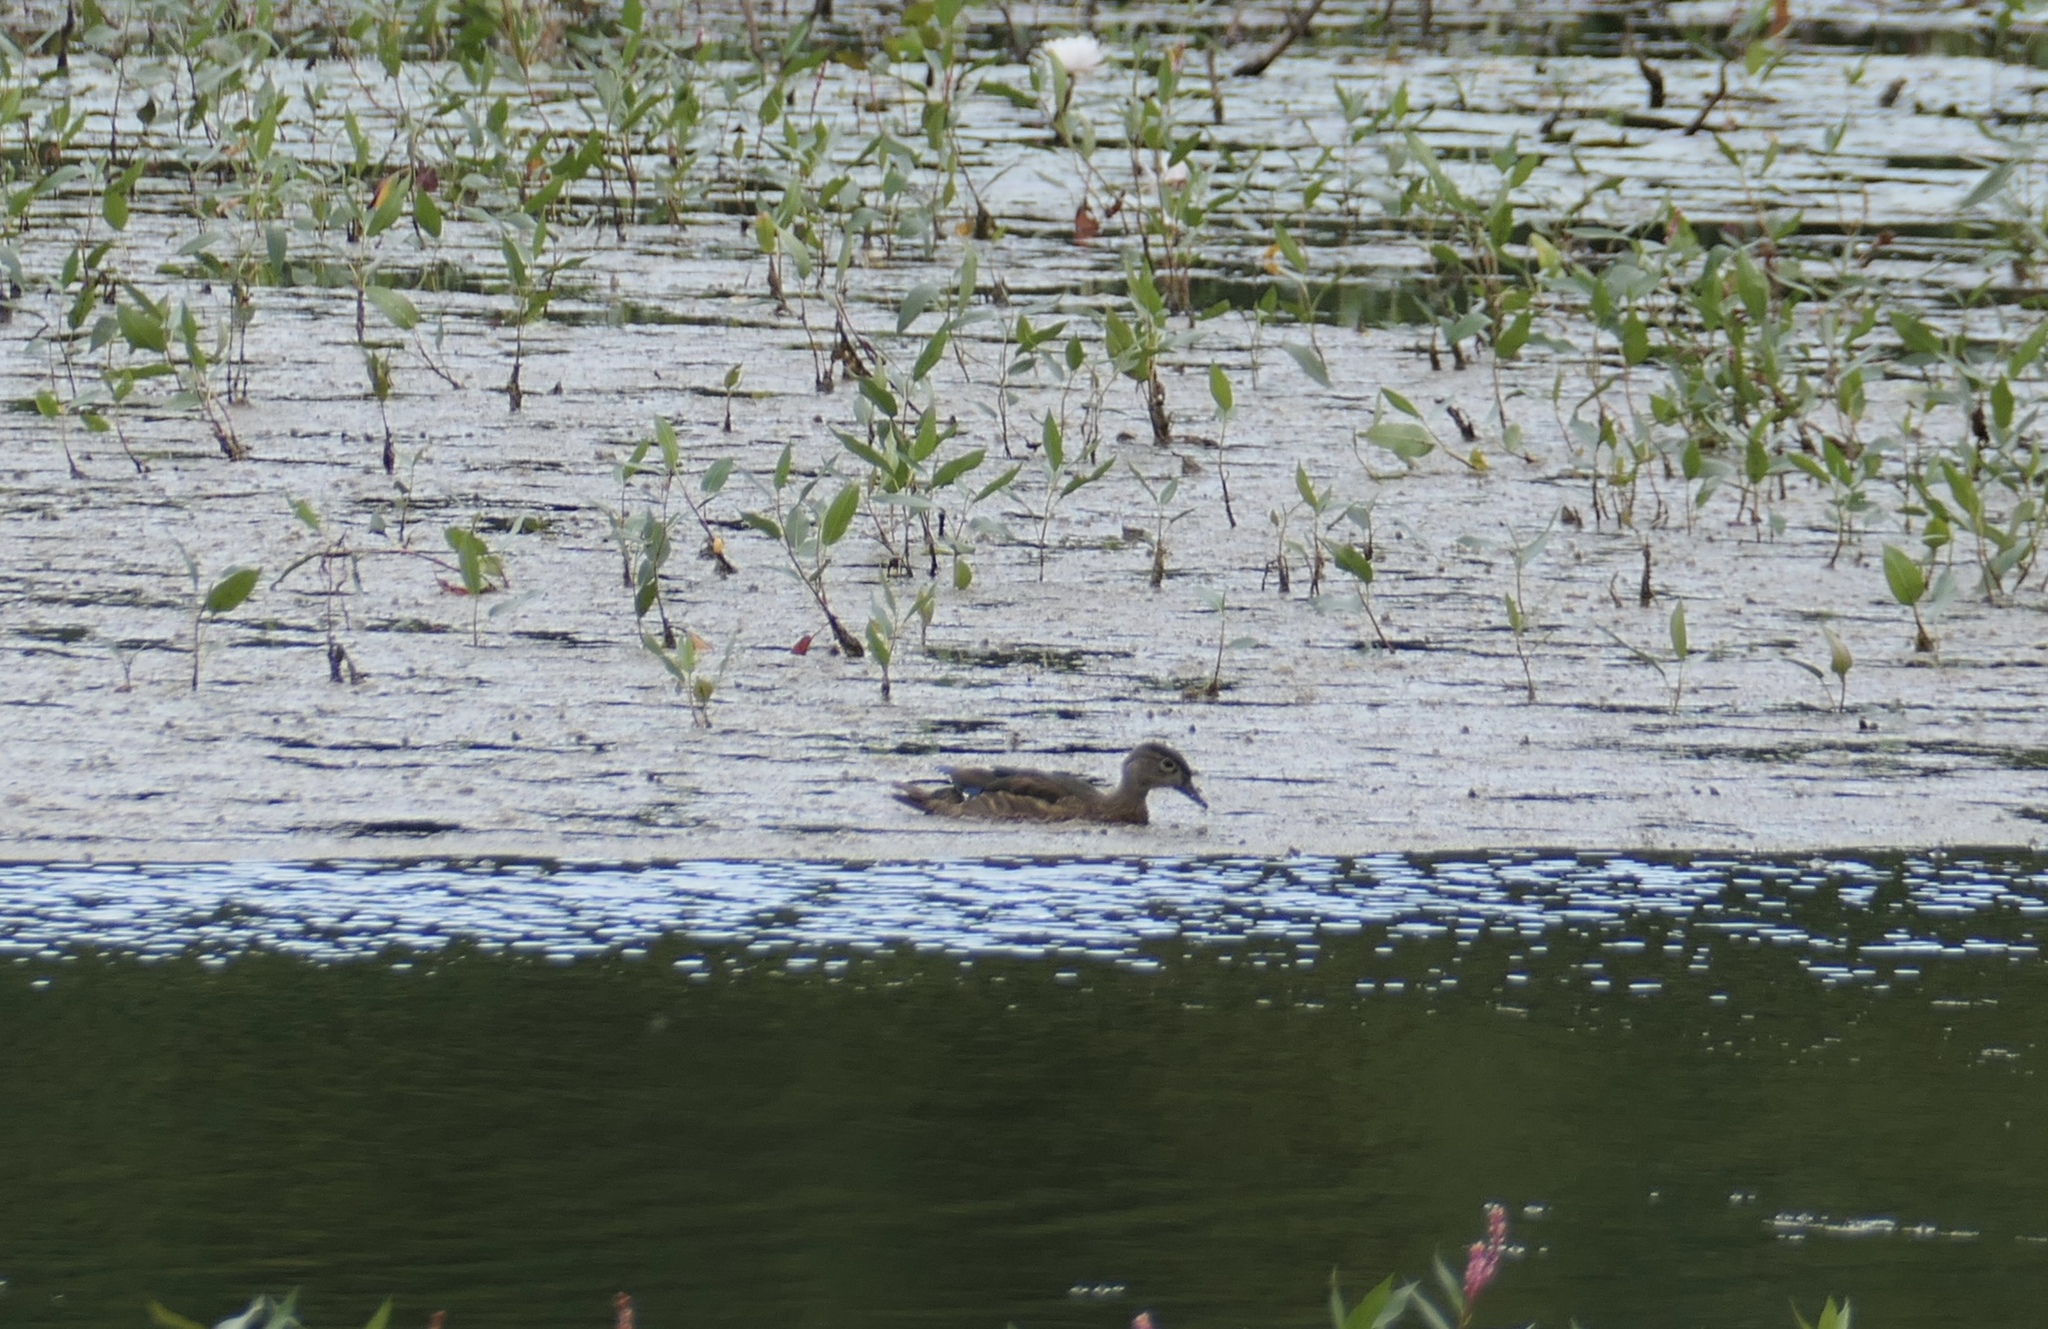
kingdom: Animalia
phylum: Chordata
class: Aves
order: Anseriformes
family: Anatidae
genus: Aix
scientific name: Aix sponsa
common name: Wood duck
